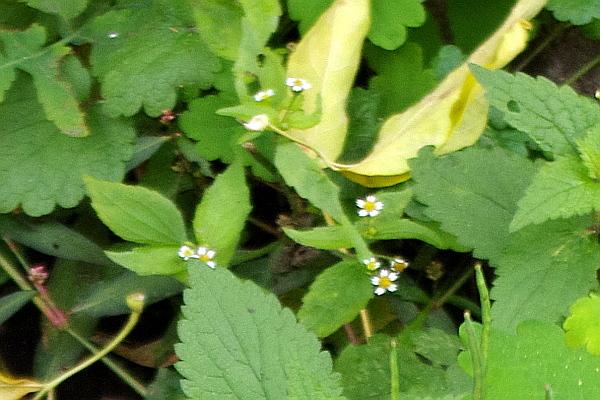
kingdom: Plantae
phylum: Tracheophyta
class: Magnoliopsida
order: Asterales
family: Asteraceae
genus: Galinsoga
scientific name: Galinsoga quadriradiata
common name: Shaggy soldier
